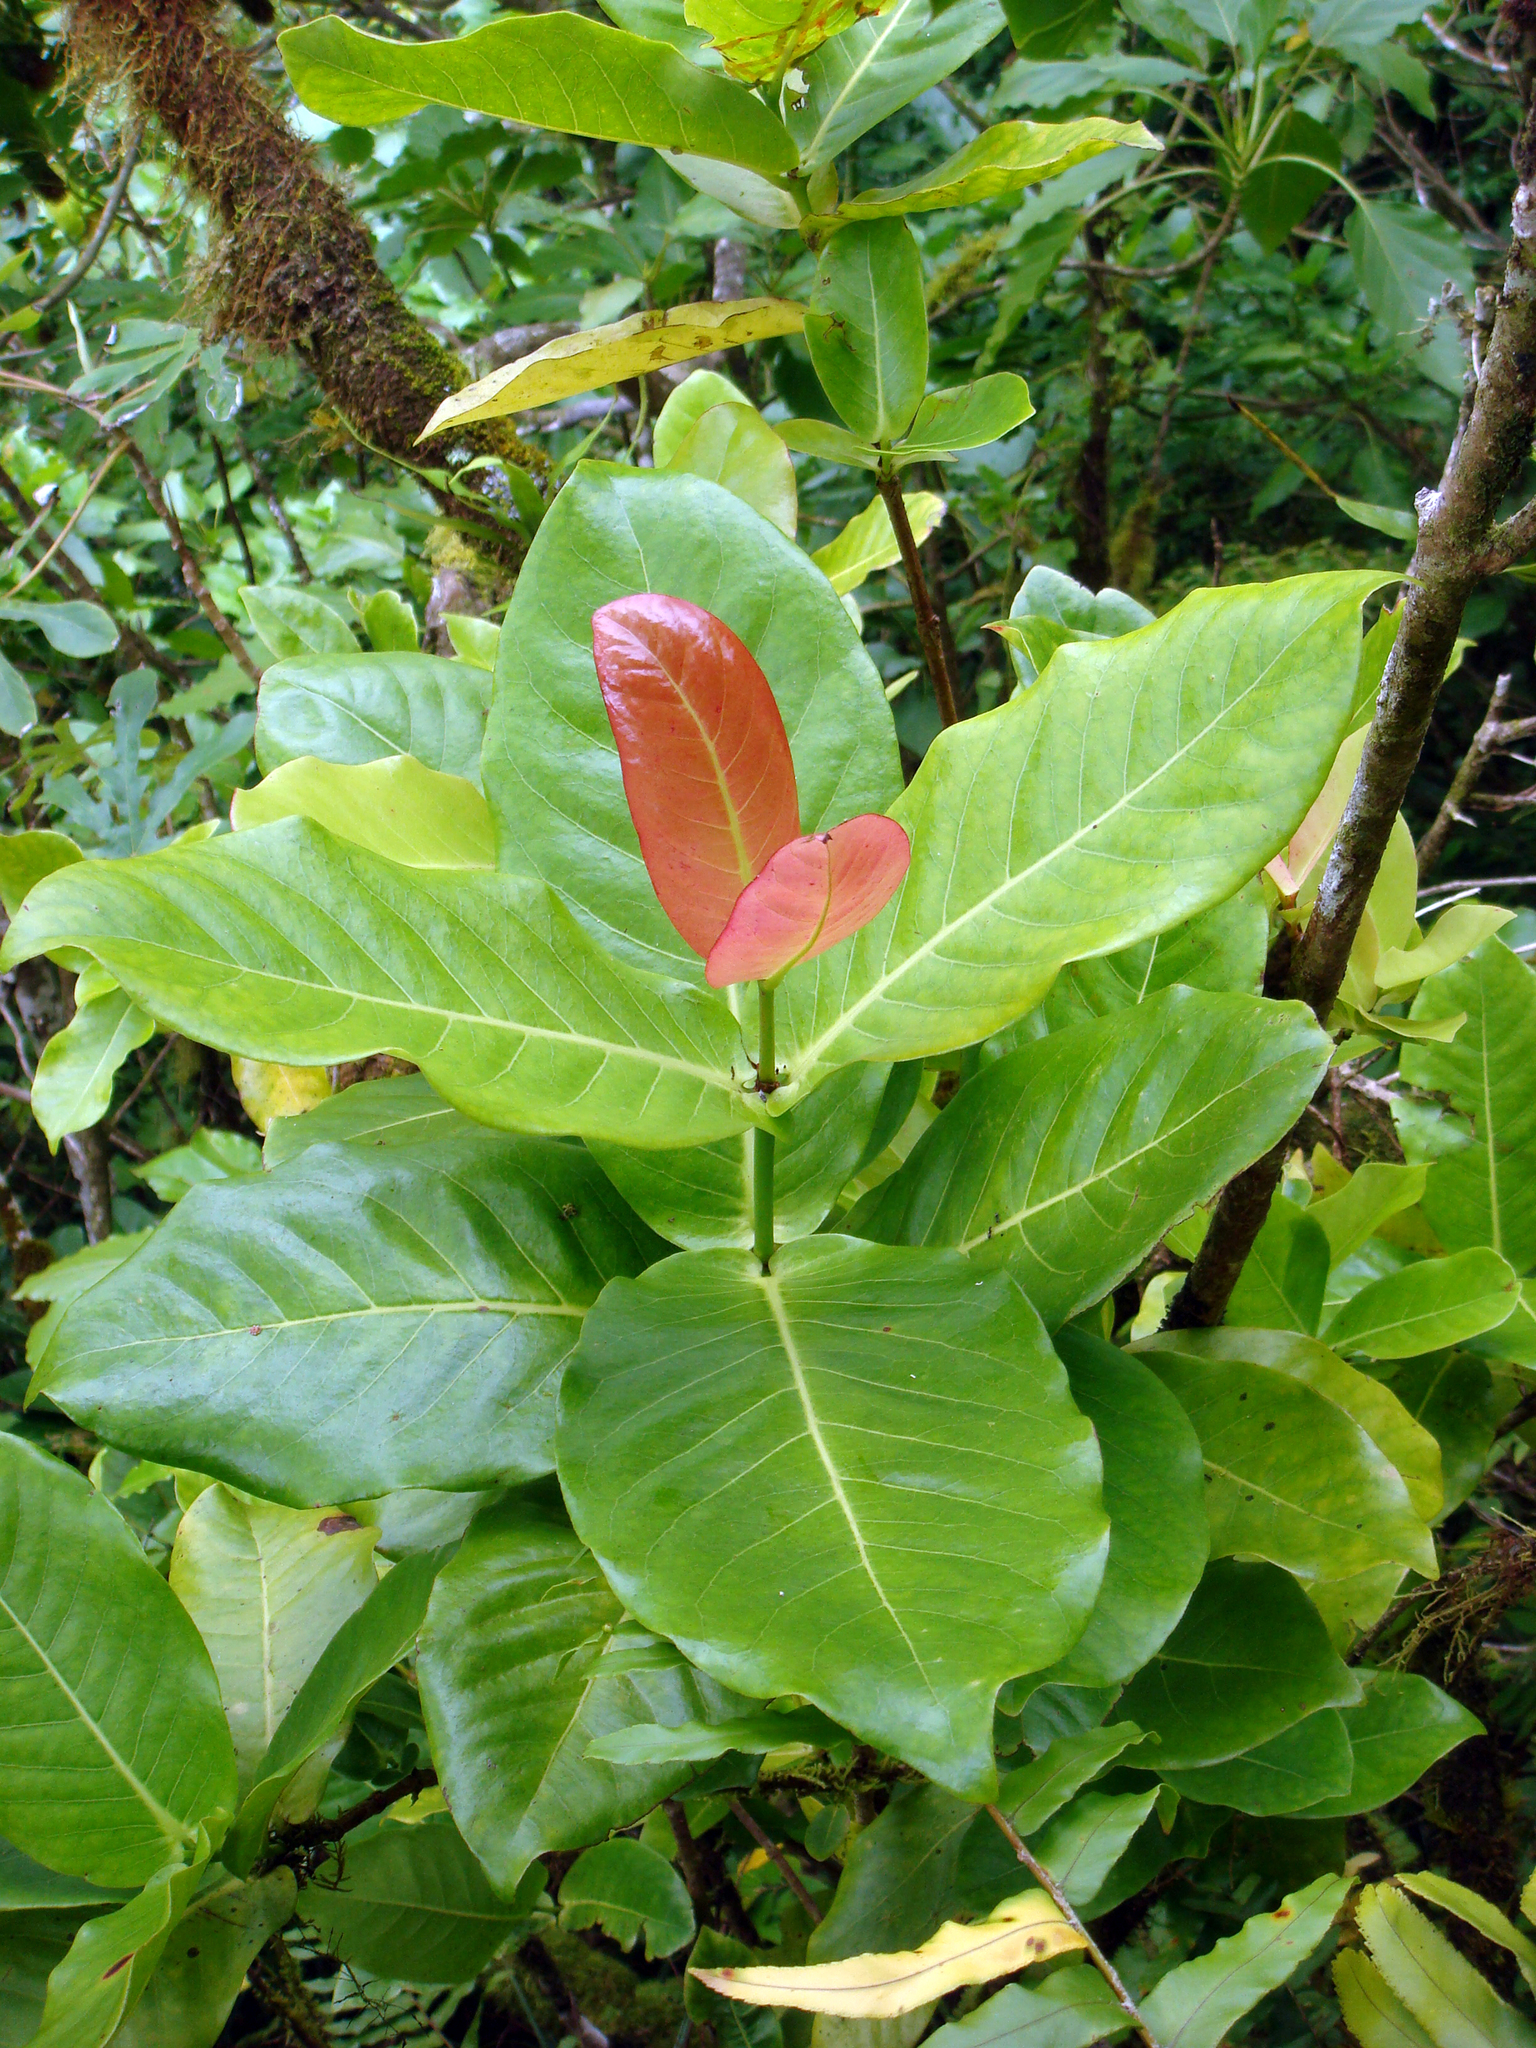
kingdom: Plantae
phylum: Tracheophyta
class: Magnoliopsida
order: Gentianales
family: Rubiaceae
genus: Ixora
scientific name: Ixora foetida
